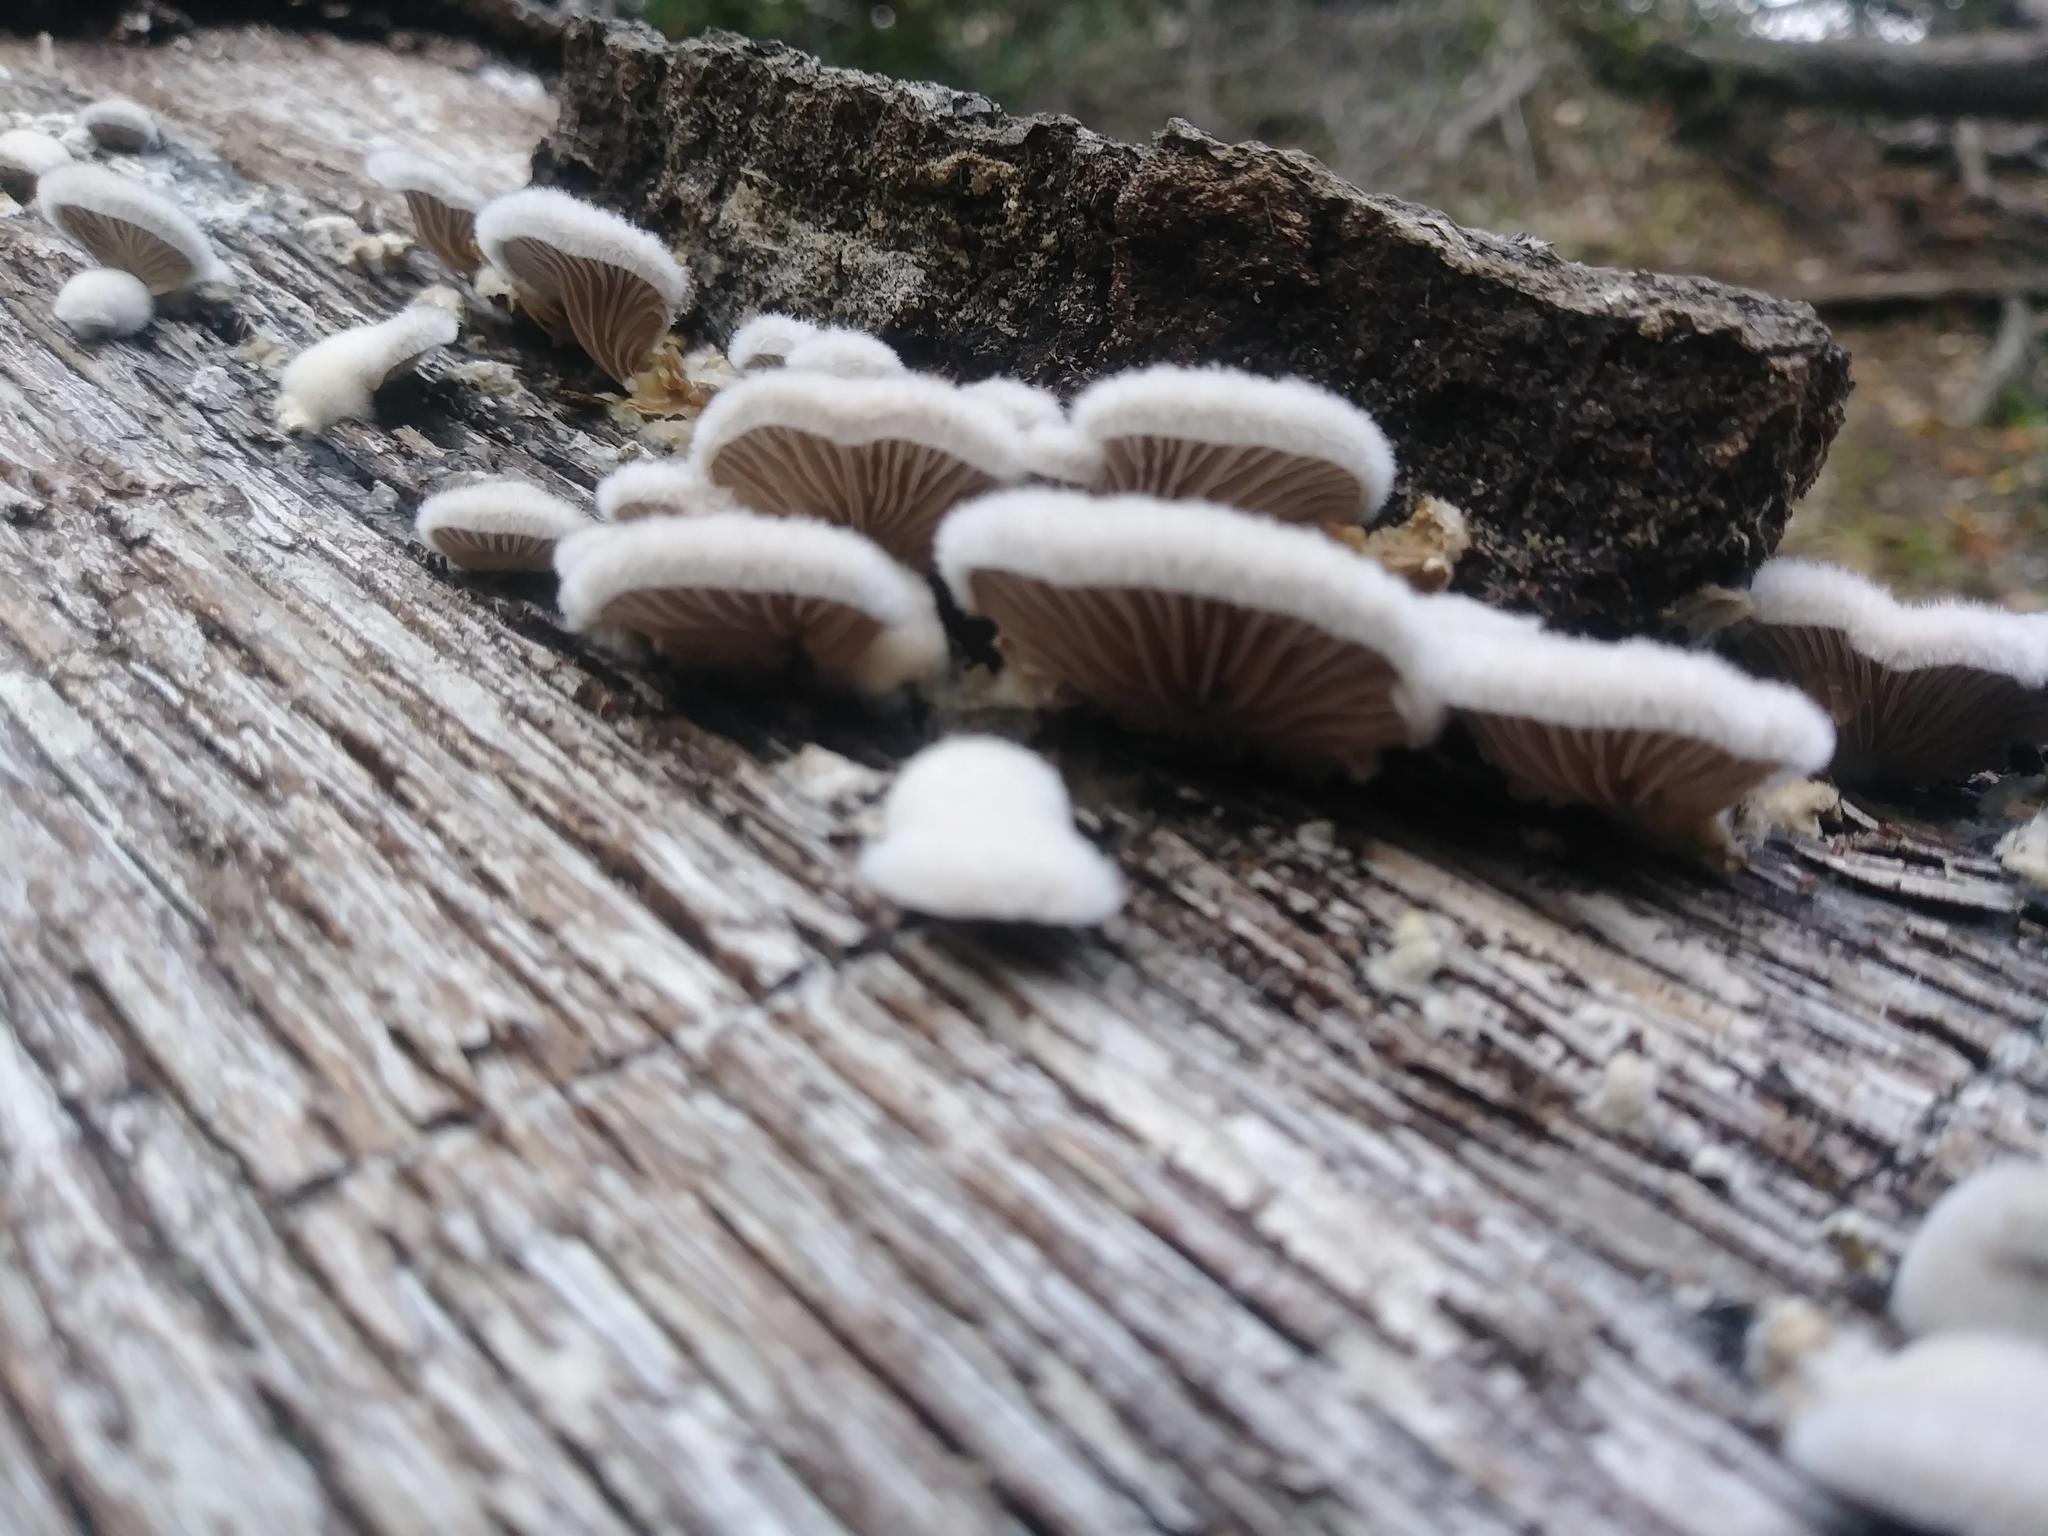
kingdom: Fungi
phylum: Basidiomycota
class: Agaricomycetes
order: Agaricales
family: Schizophyllaceae
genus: Schizophyllum
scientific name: Schizophyllum commune
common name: Common porecrust
